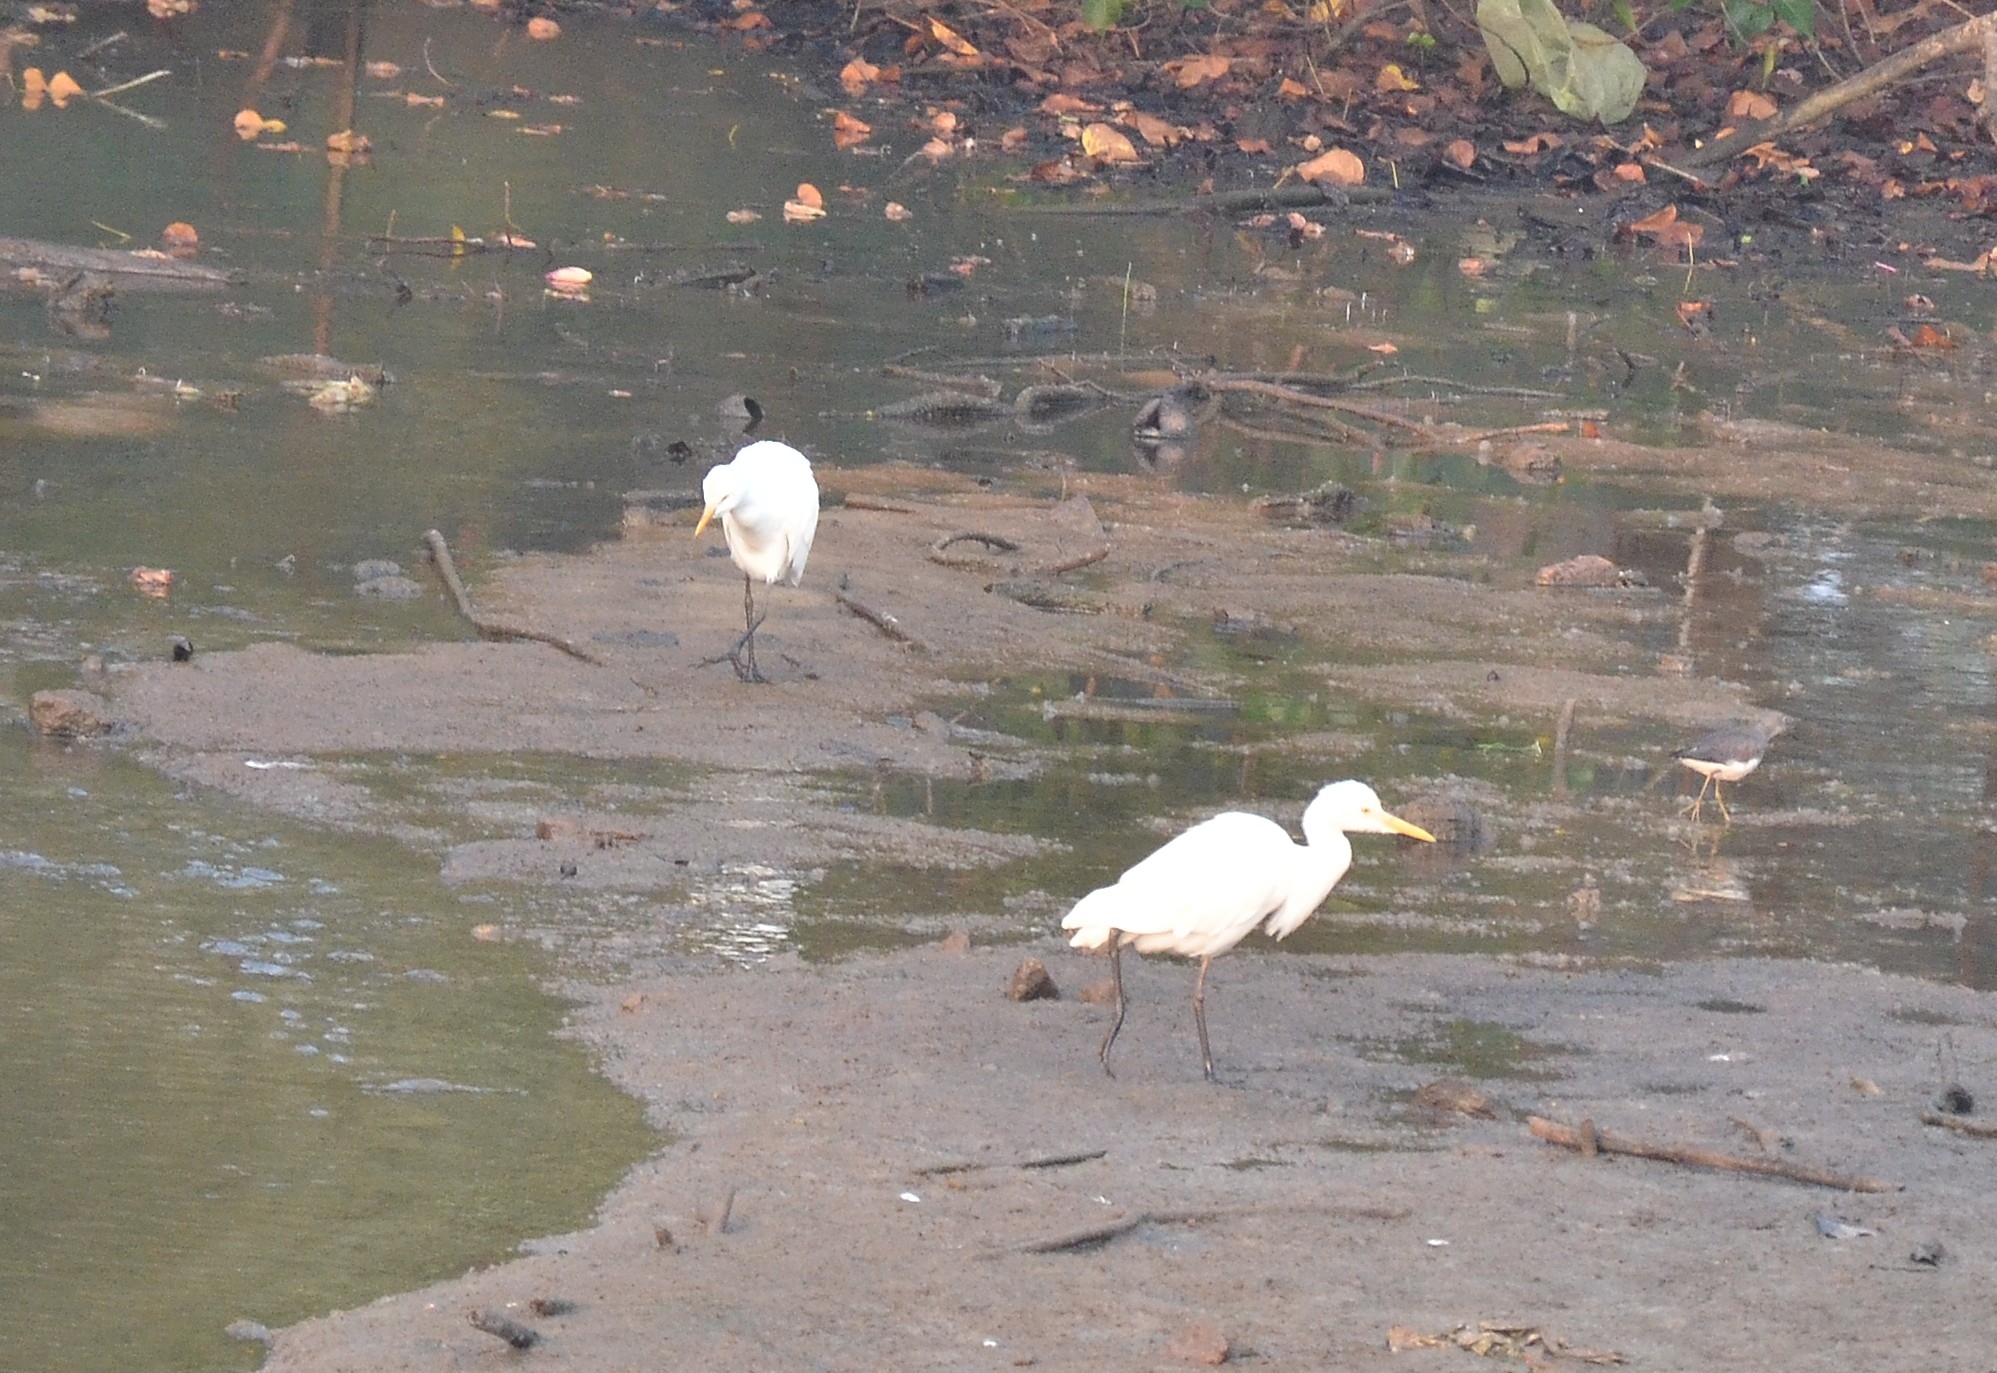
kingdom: Animalia
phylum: Chordata
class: Aves
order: Pelecaniformes
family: Ardeidae
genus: Bubulcus
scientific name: Bubulcus coromandus
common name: Eastern cattle egret
